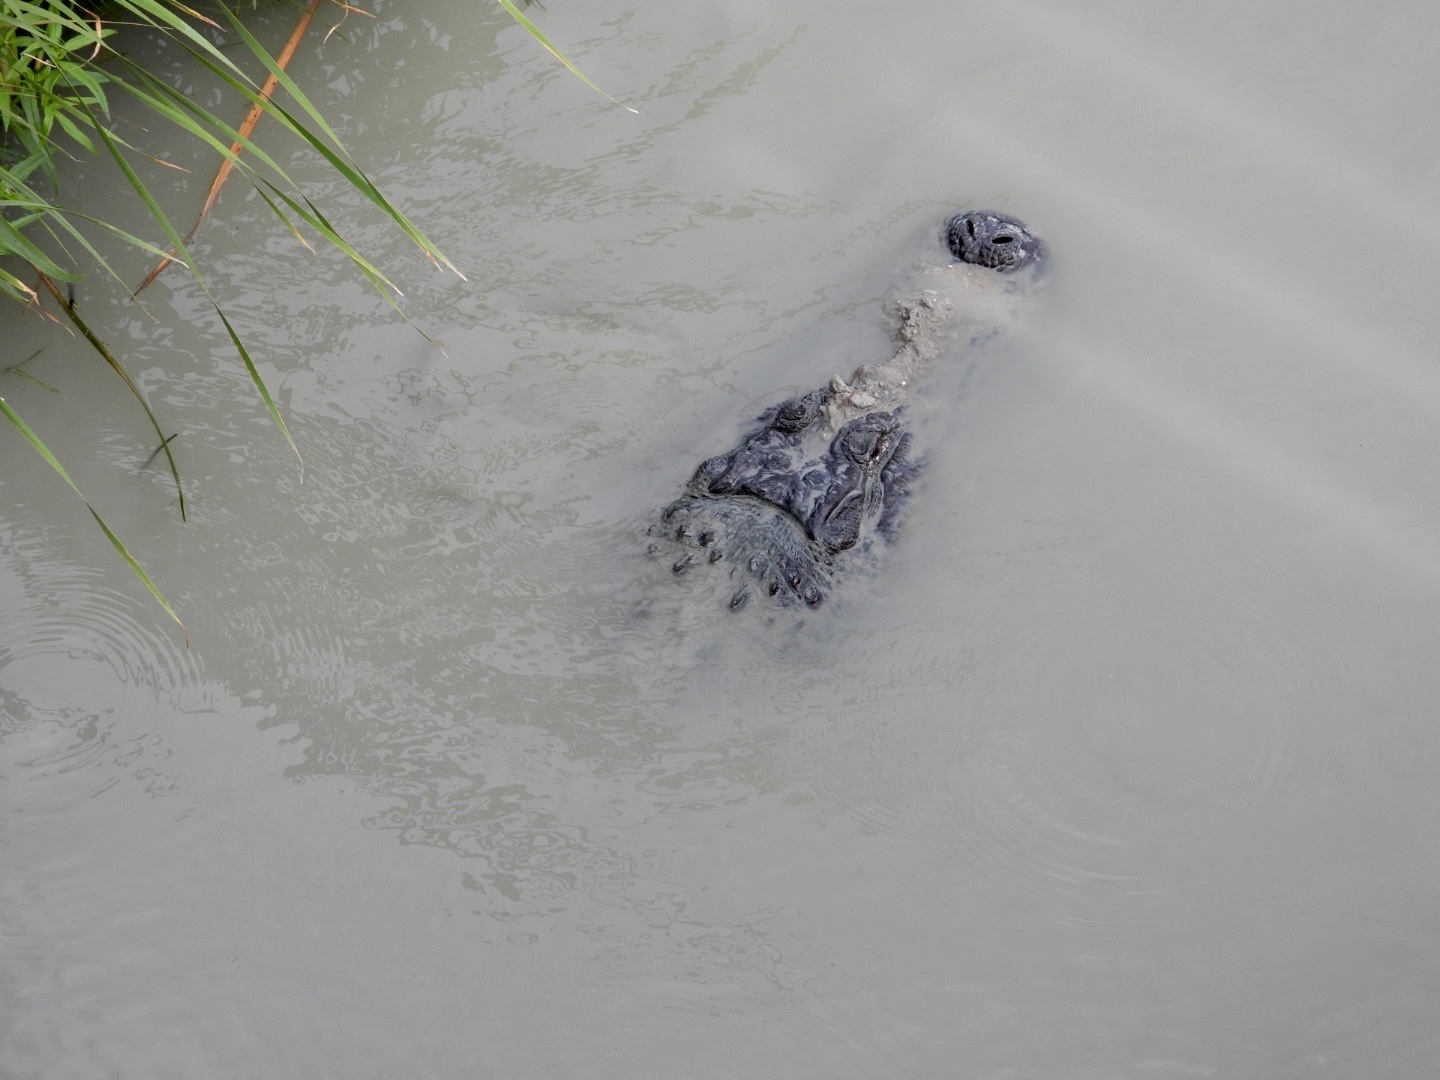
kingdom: Animalia
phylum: Chordata
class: Crocodylia
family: Alligatoridae
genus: Alligator
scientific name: Alligator mississippiensis
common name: American alligator
